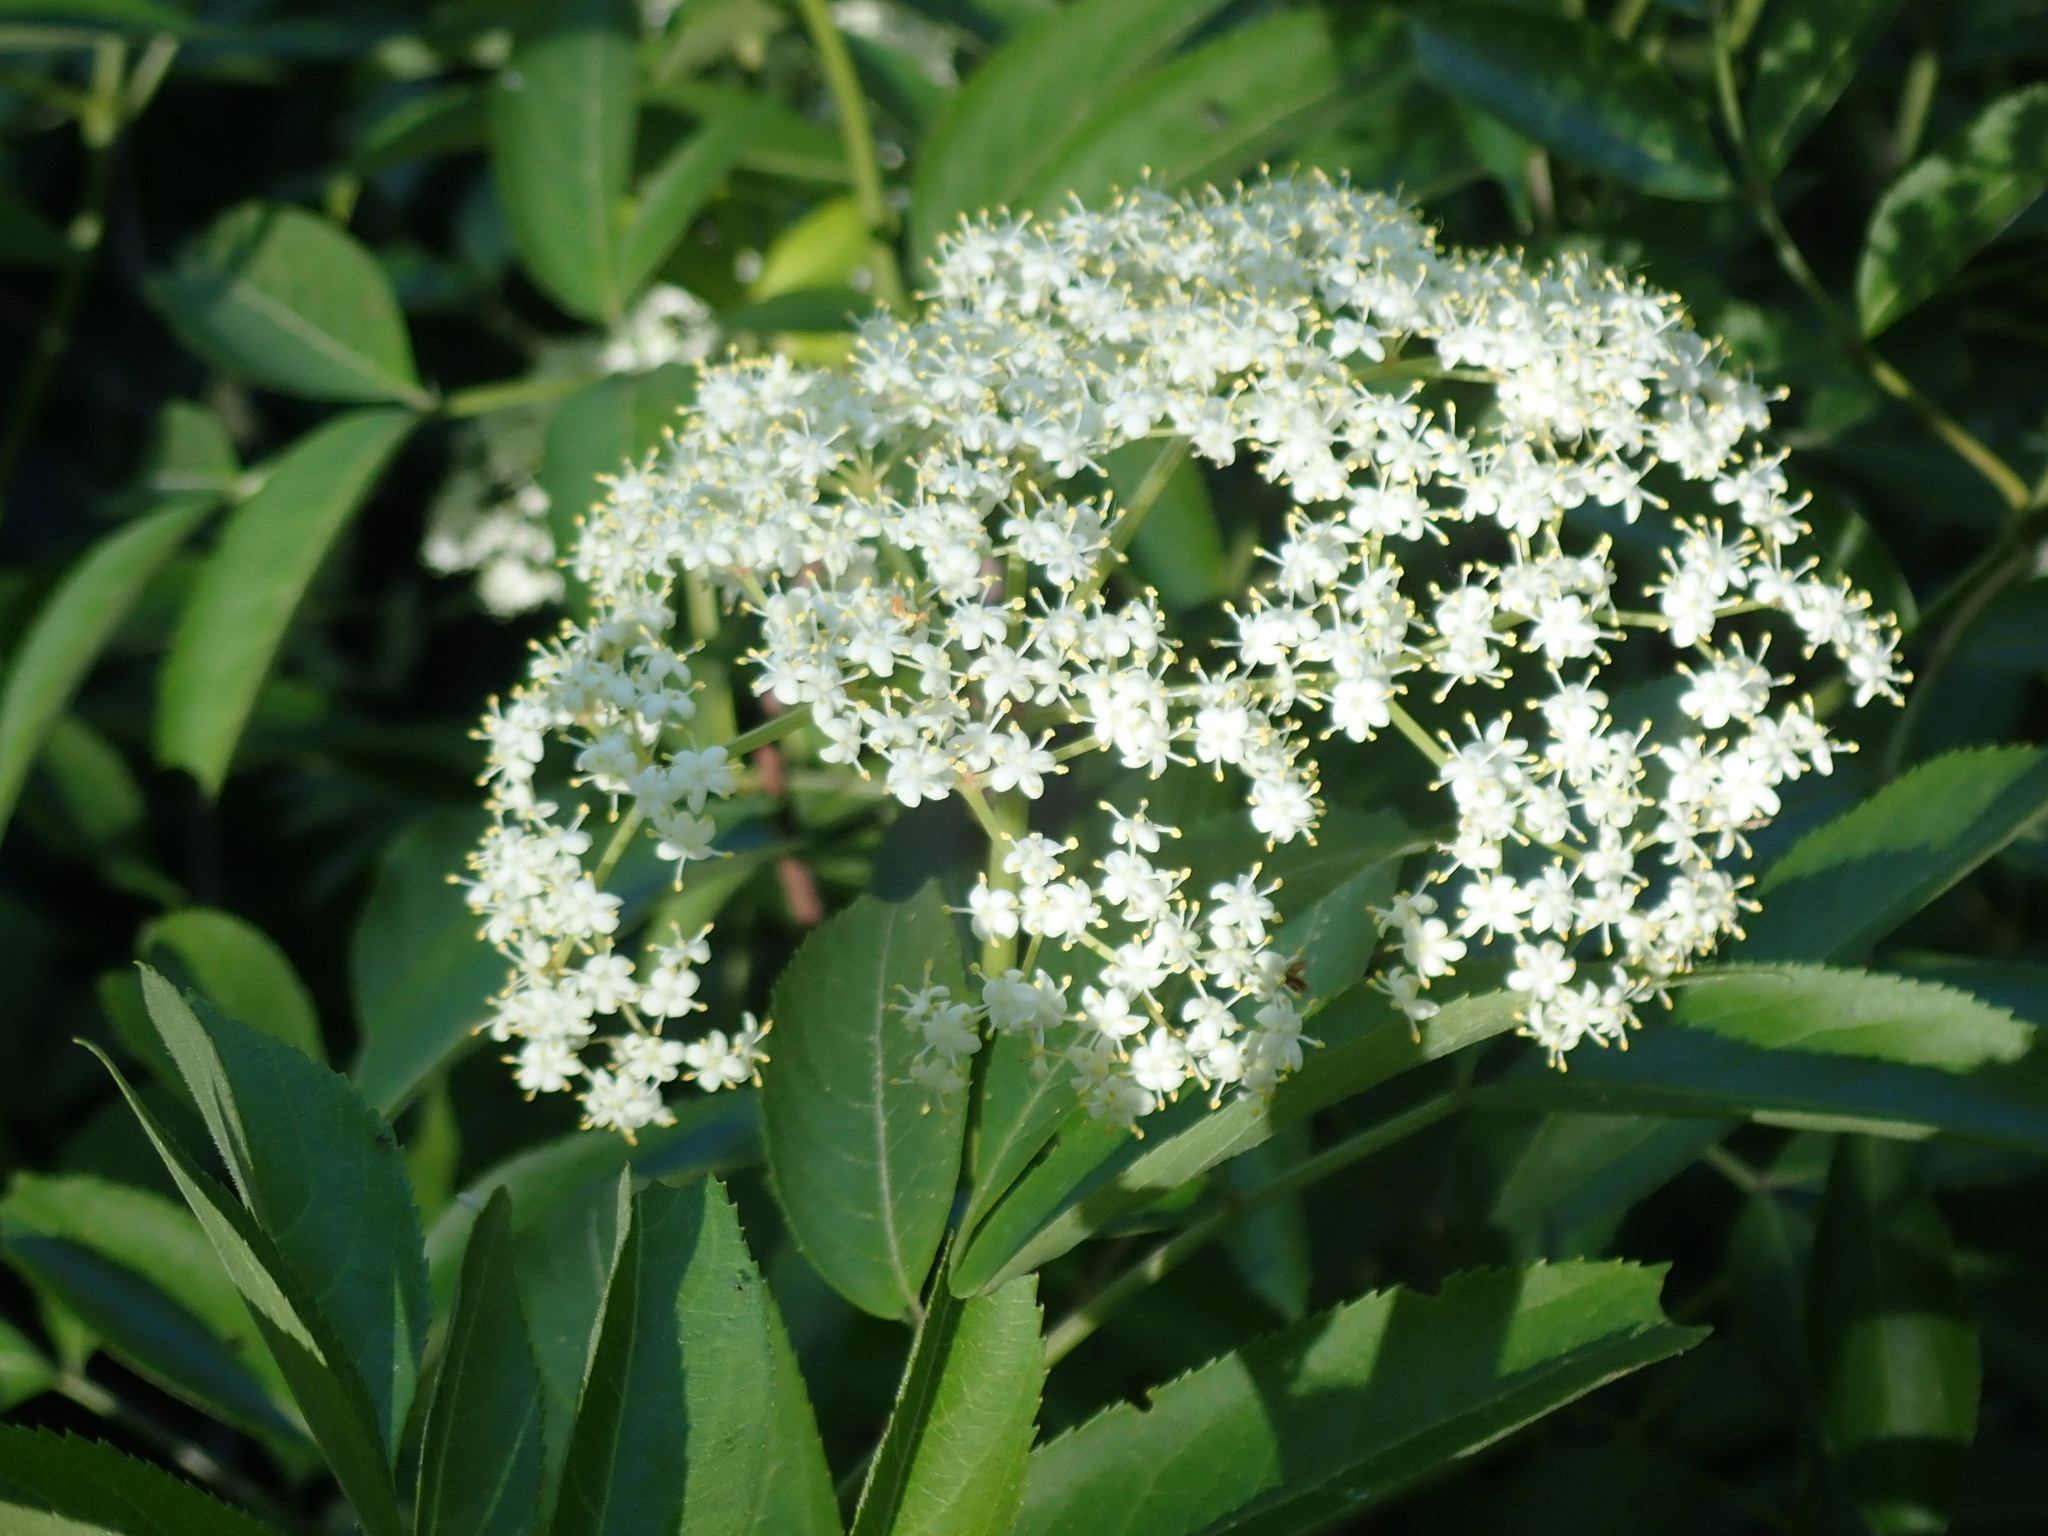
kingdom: Plantae
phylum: Tracheophyta
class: Magnoliopsida
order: Dipsacales
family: Viburnaceae
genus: Sambucus
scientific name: Sambucus canadensis
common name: American elder
